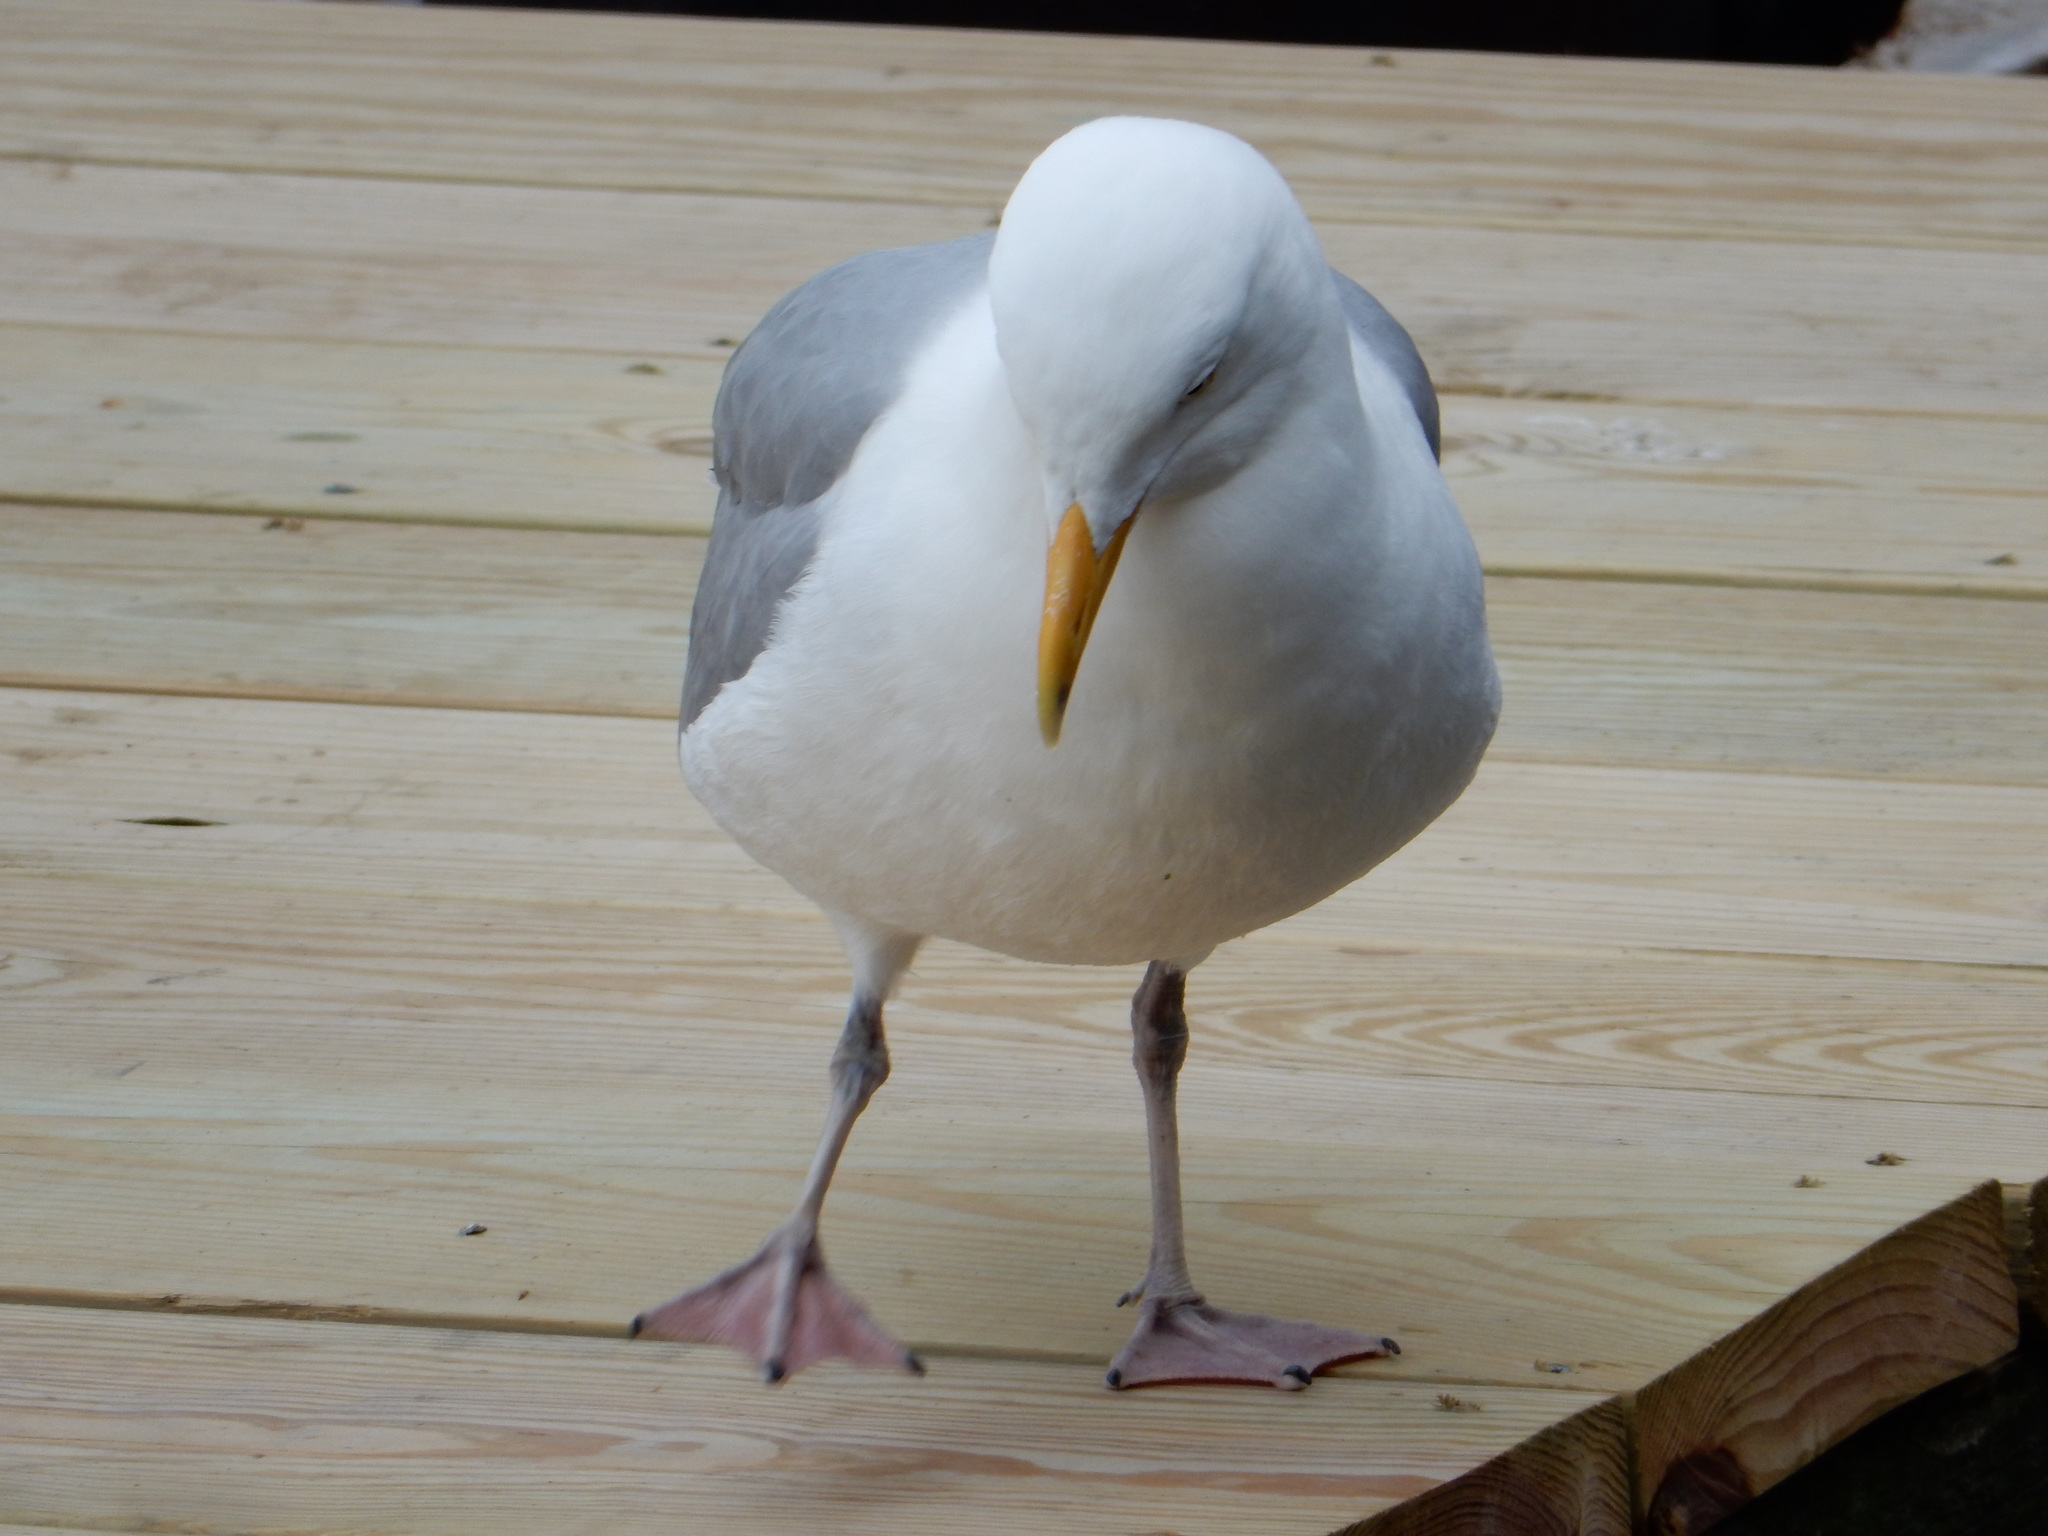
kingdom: Animalia
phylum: Chordata
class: Aves
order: Charadriiformes
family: Laridae
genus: Larus
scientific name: Larus argentatus
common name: Herring gull
